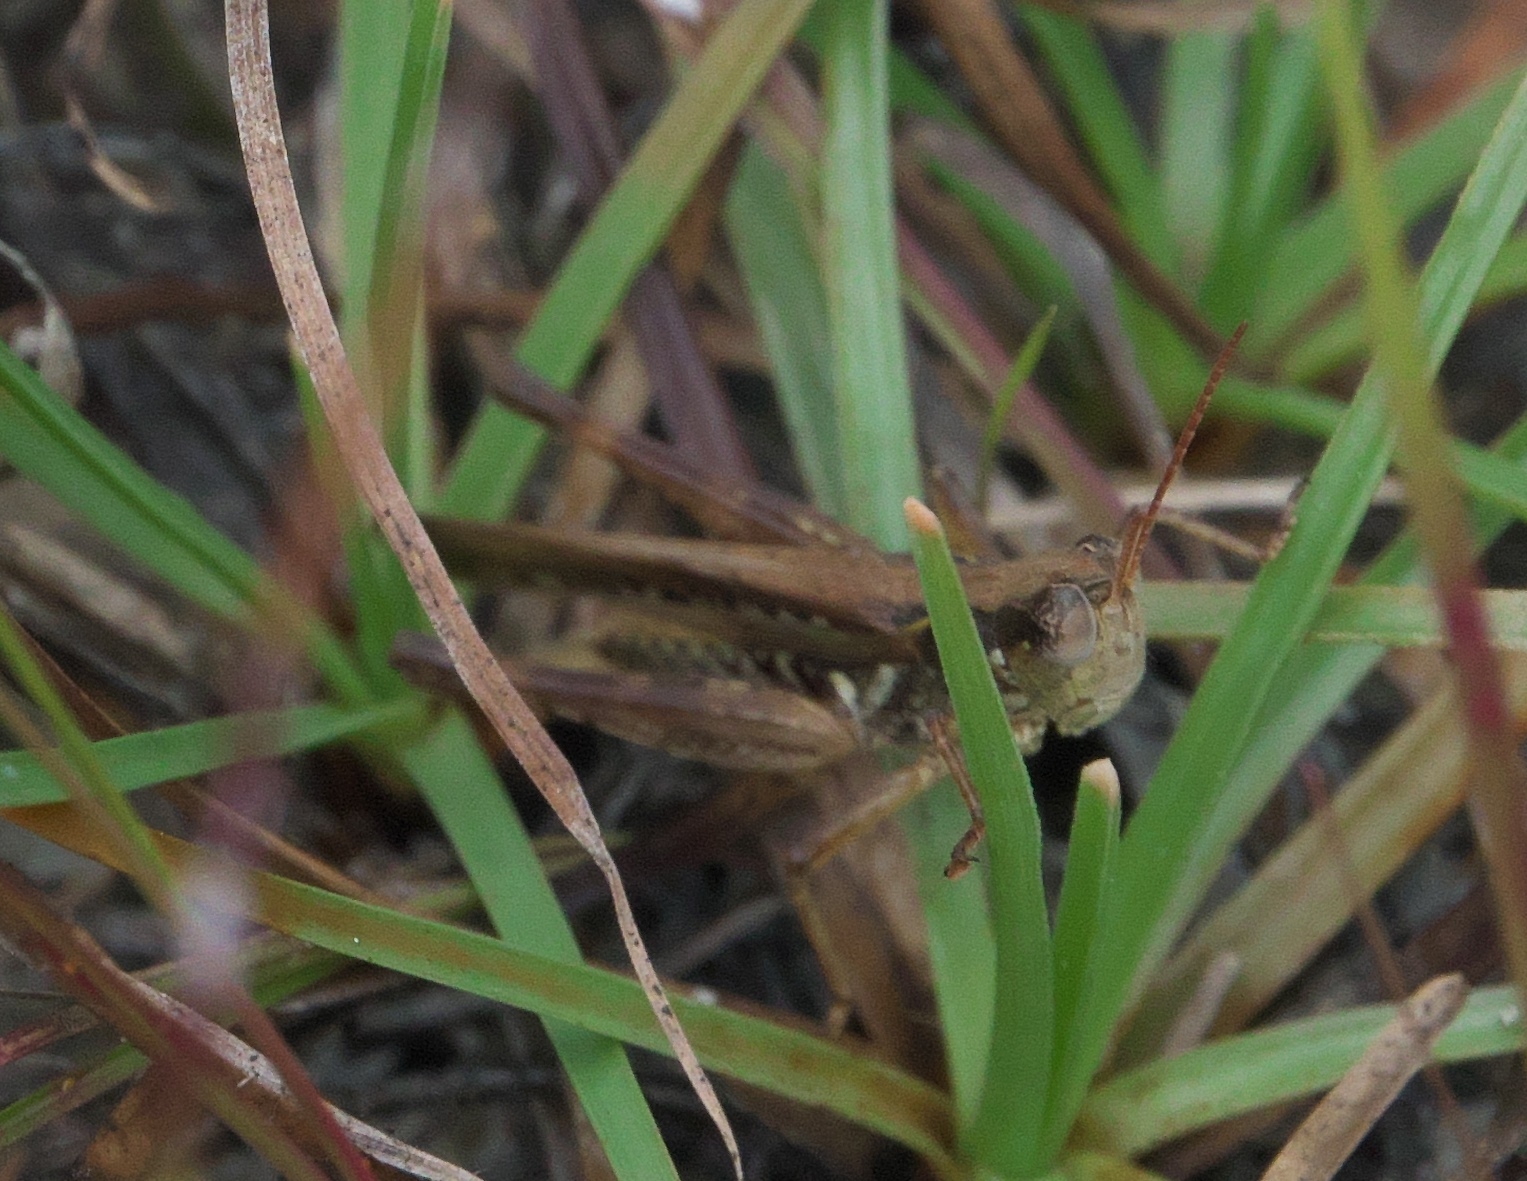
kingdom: Animalia
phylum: Arthropoda
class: Insecta
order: Orthoptera
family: Acrididae
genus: Orphulella
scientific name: Orphulella pelidna
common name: Spotted-wing grasshopper
